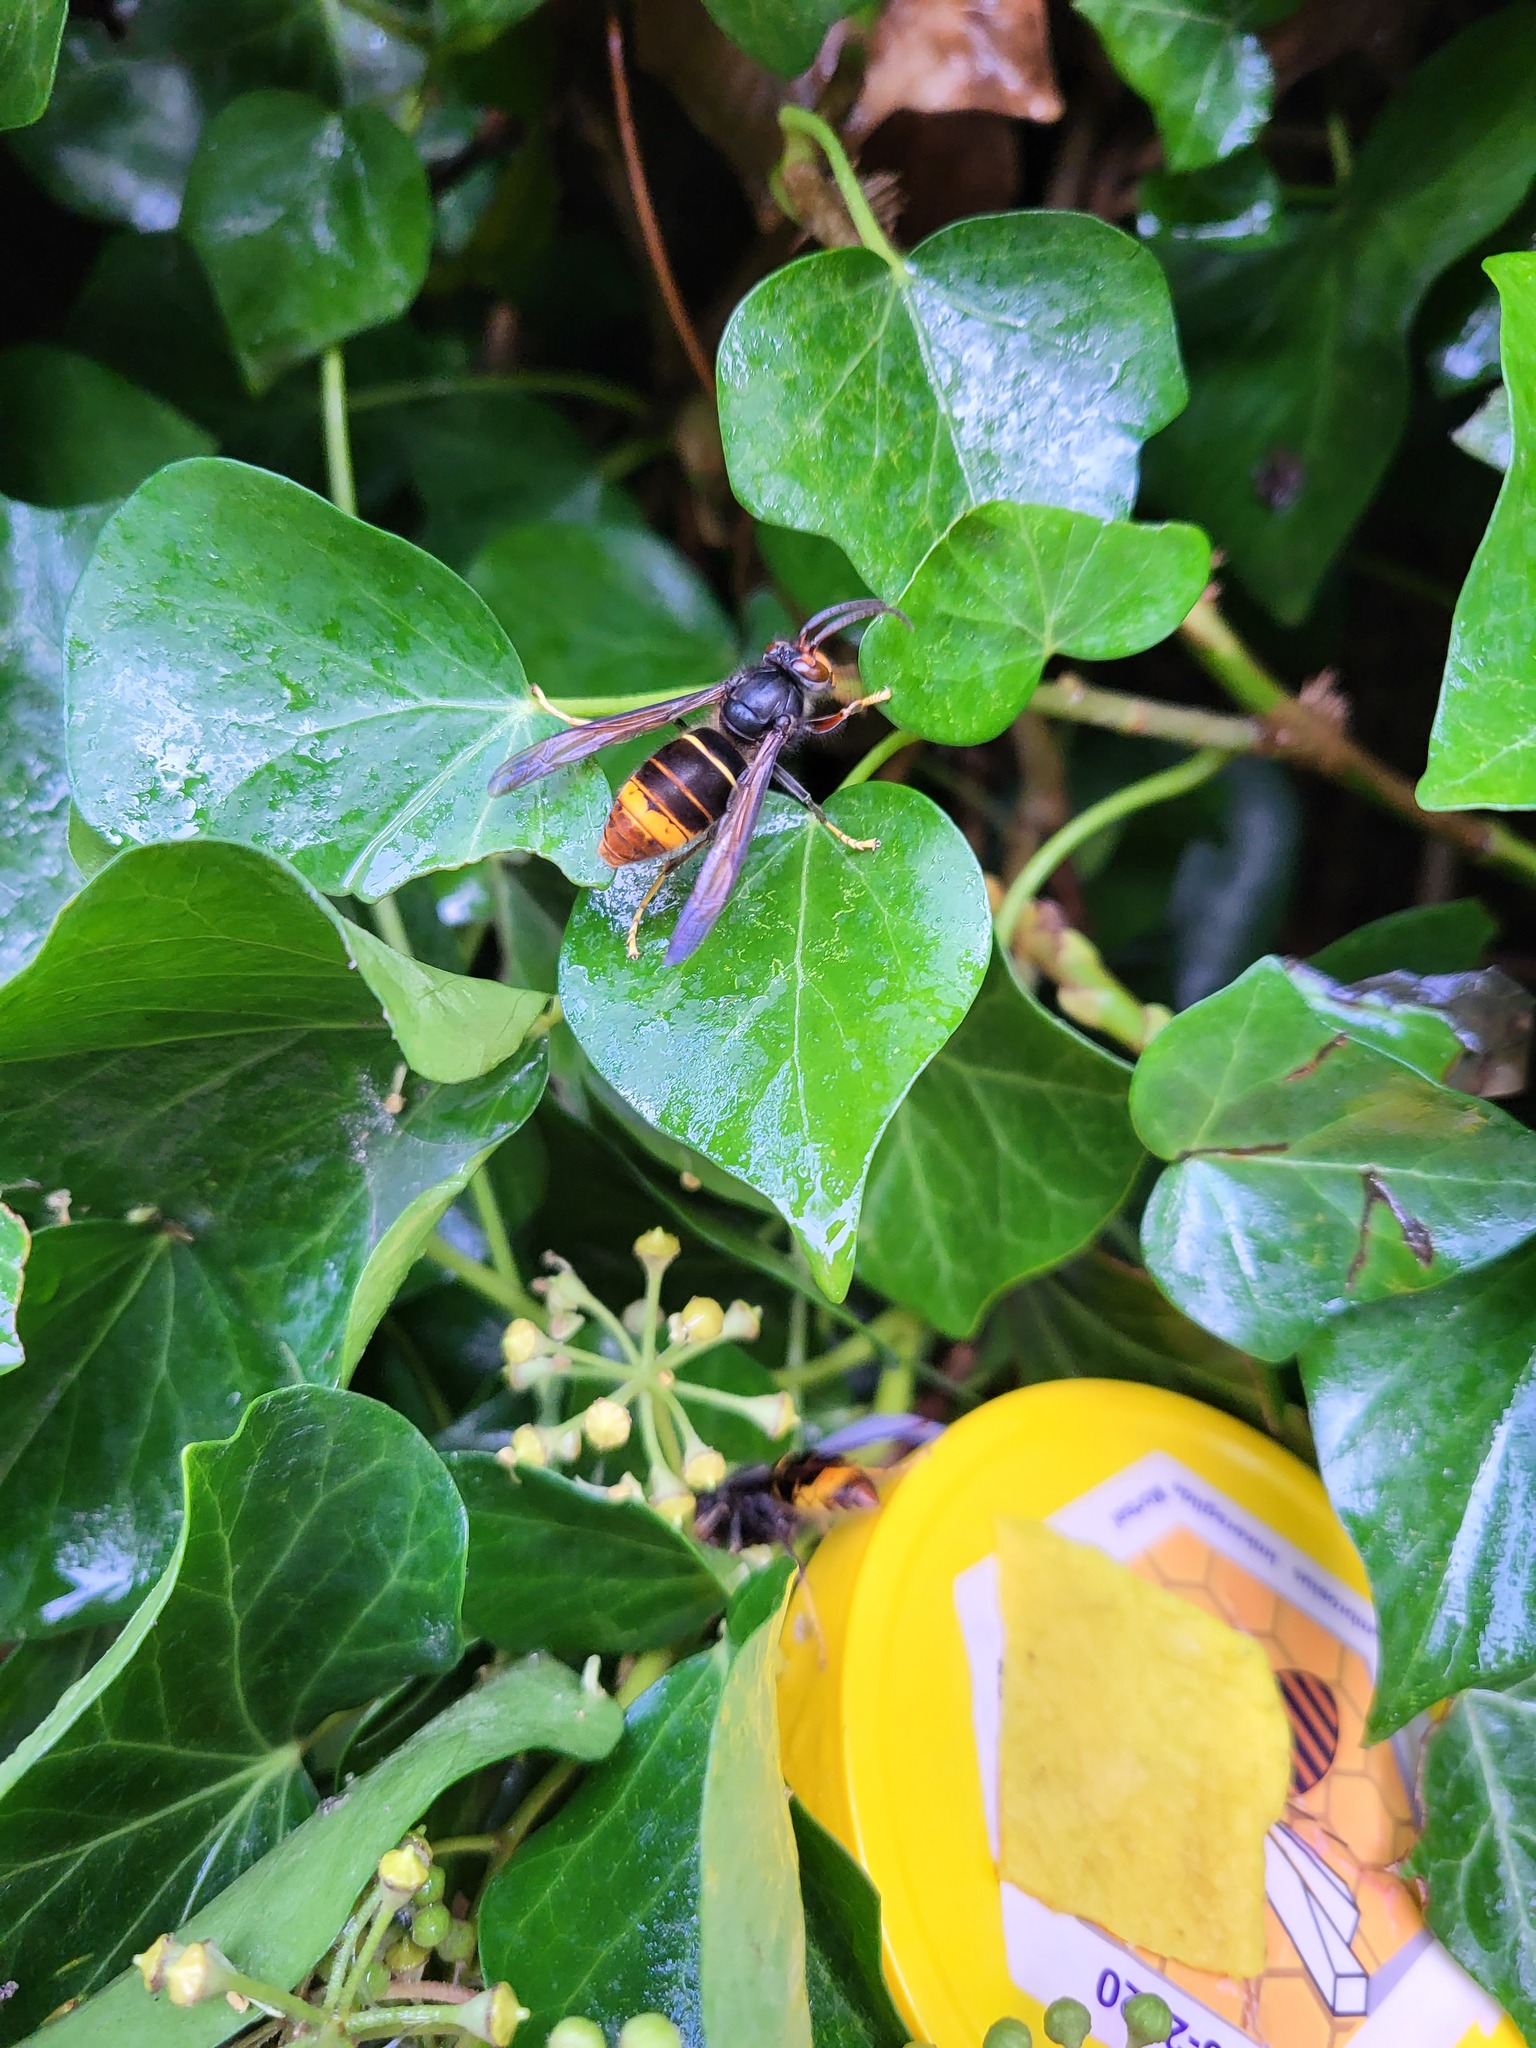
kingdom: Animalia
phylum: Arthropoda
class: Insecta
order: Hymenoptera
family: Vespidae
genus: Vespa
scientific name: Vespa velutina
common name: Asian hornet
